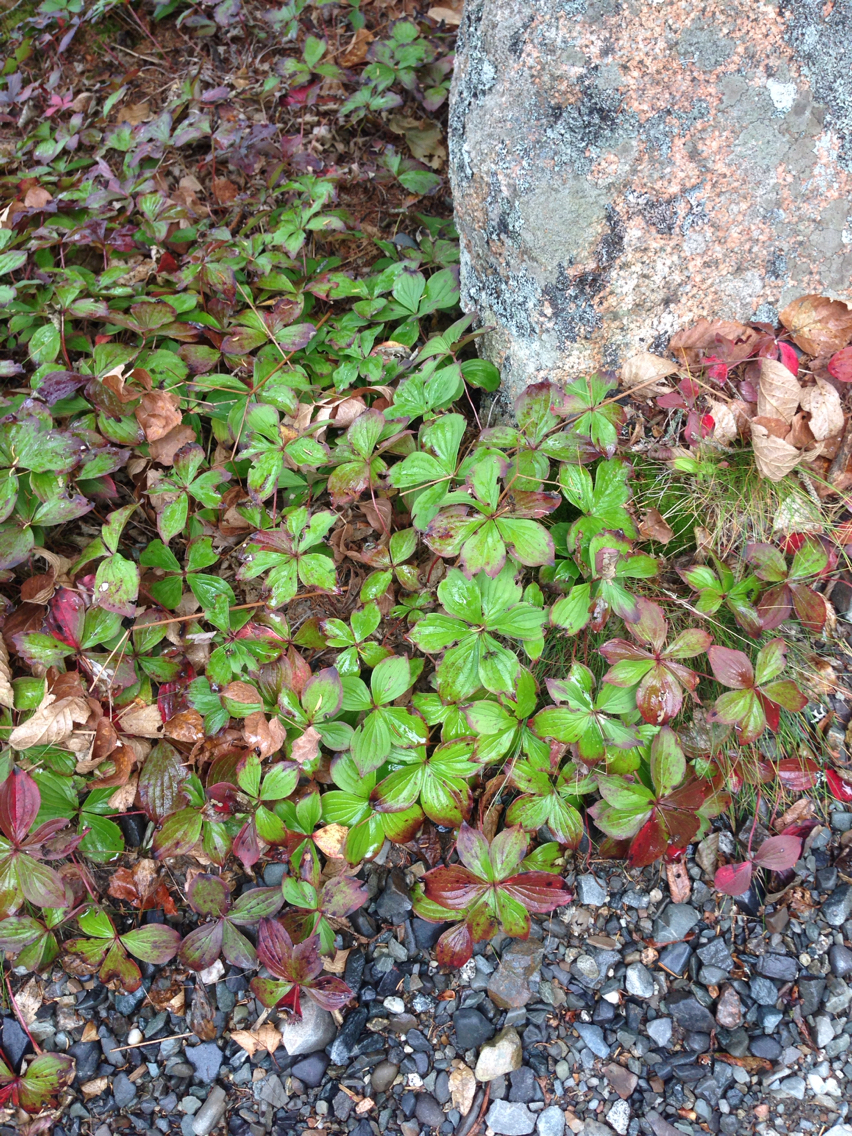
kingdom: Plantae
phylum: Tracheophyta
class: Magnoliopsida
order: Cornales
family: Cornaceae
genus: Cornus
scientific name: Cornus canadensis
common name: Creeping dogwood
